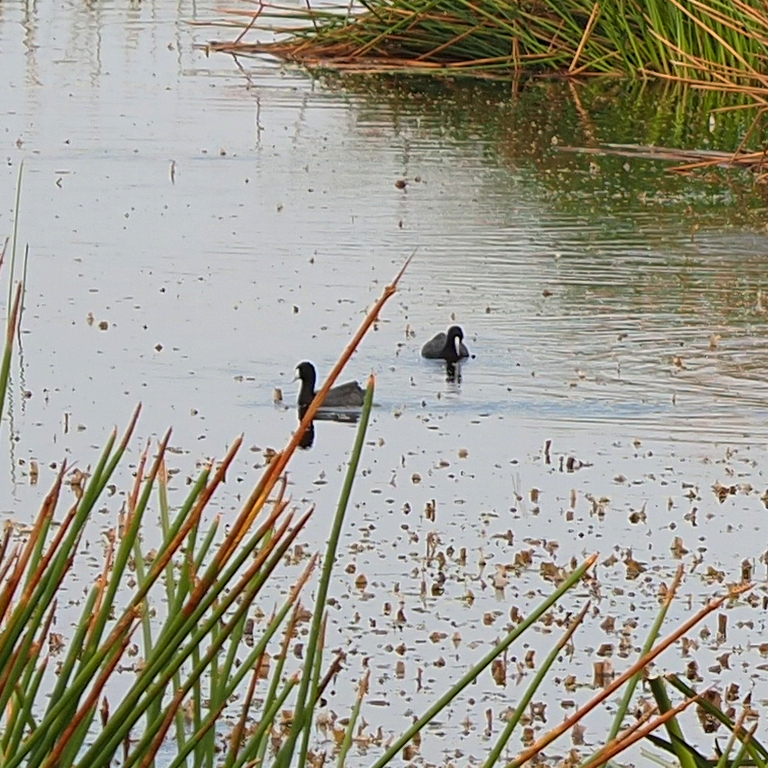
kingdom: Animalia
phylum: Chordata
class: Aves
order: Gruiformes
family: Rallidae
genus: Fulica
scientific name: Fulica atra
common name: Eurasian coot
